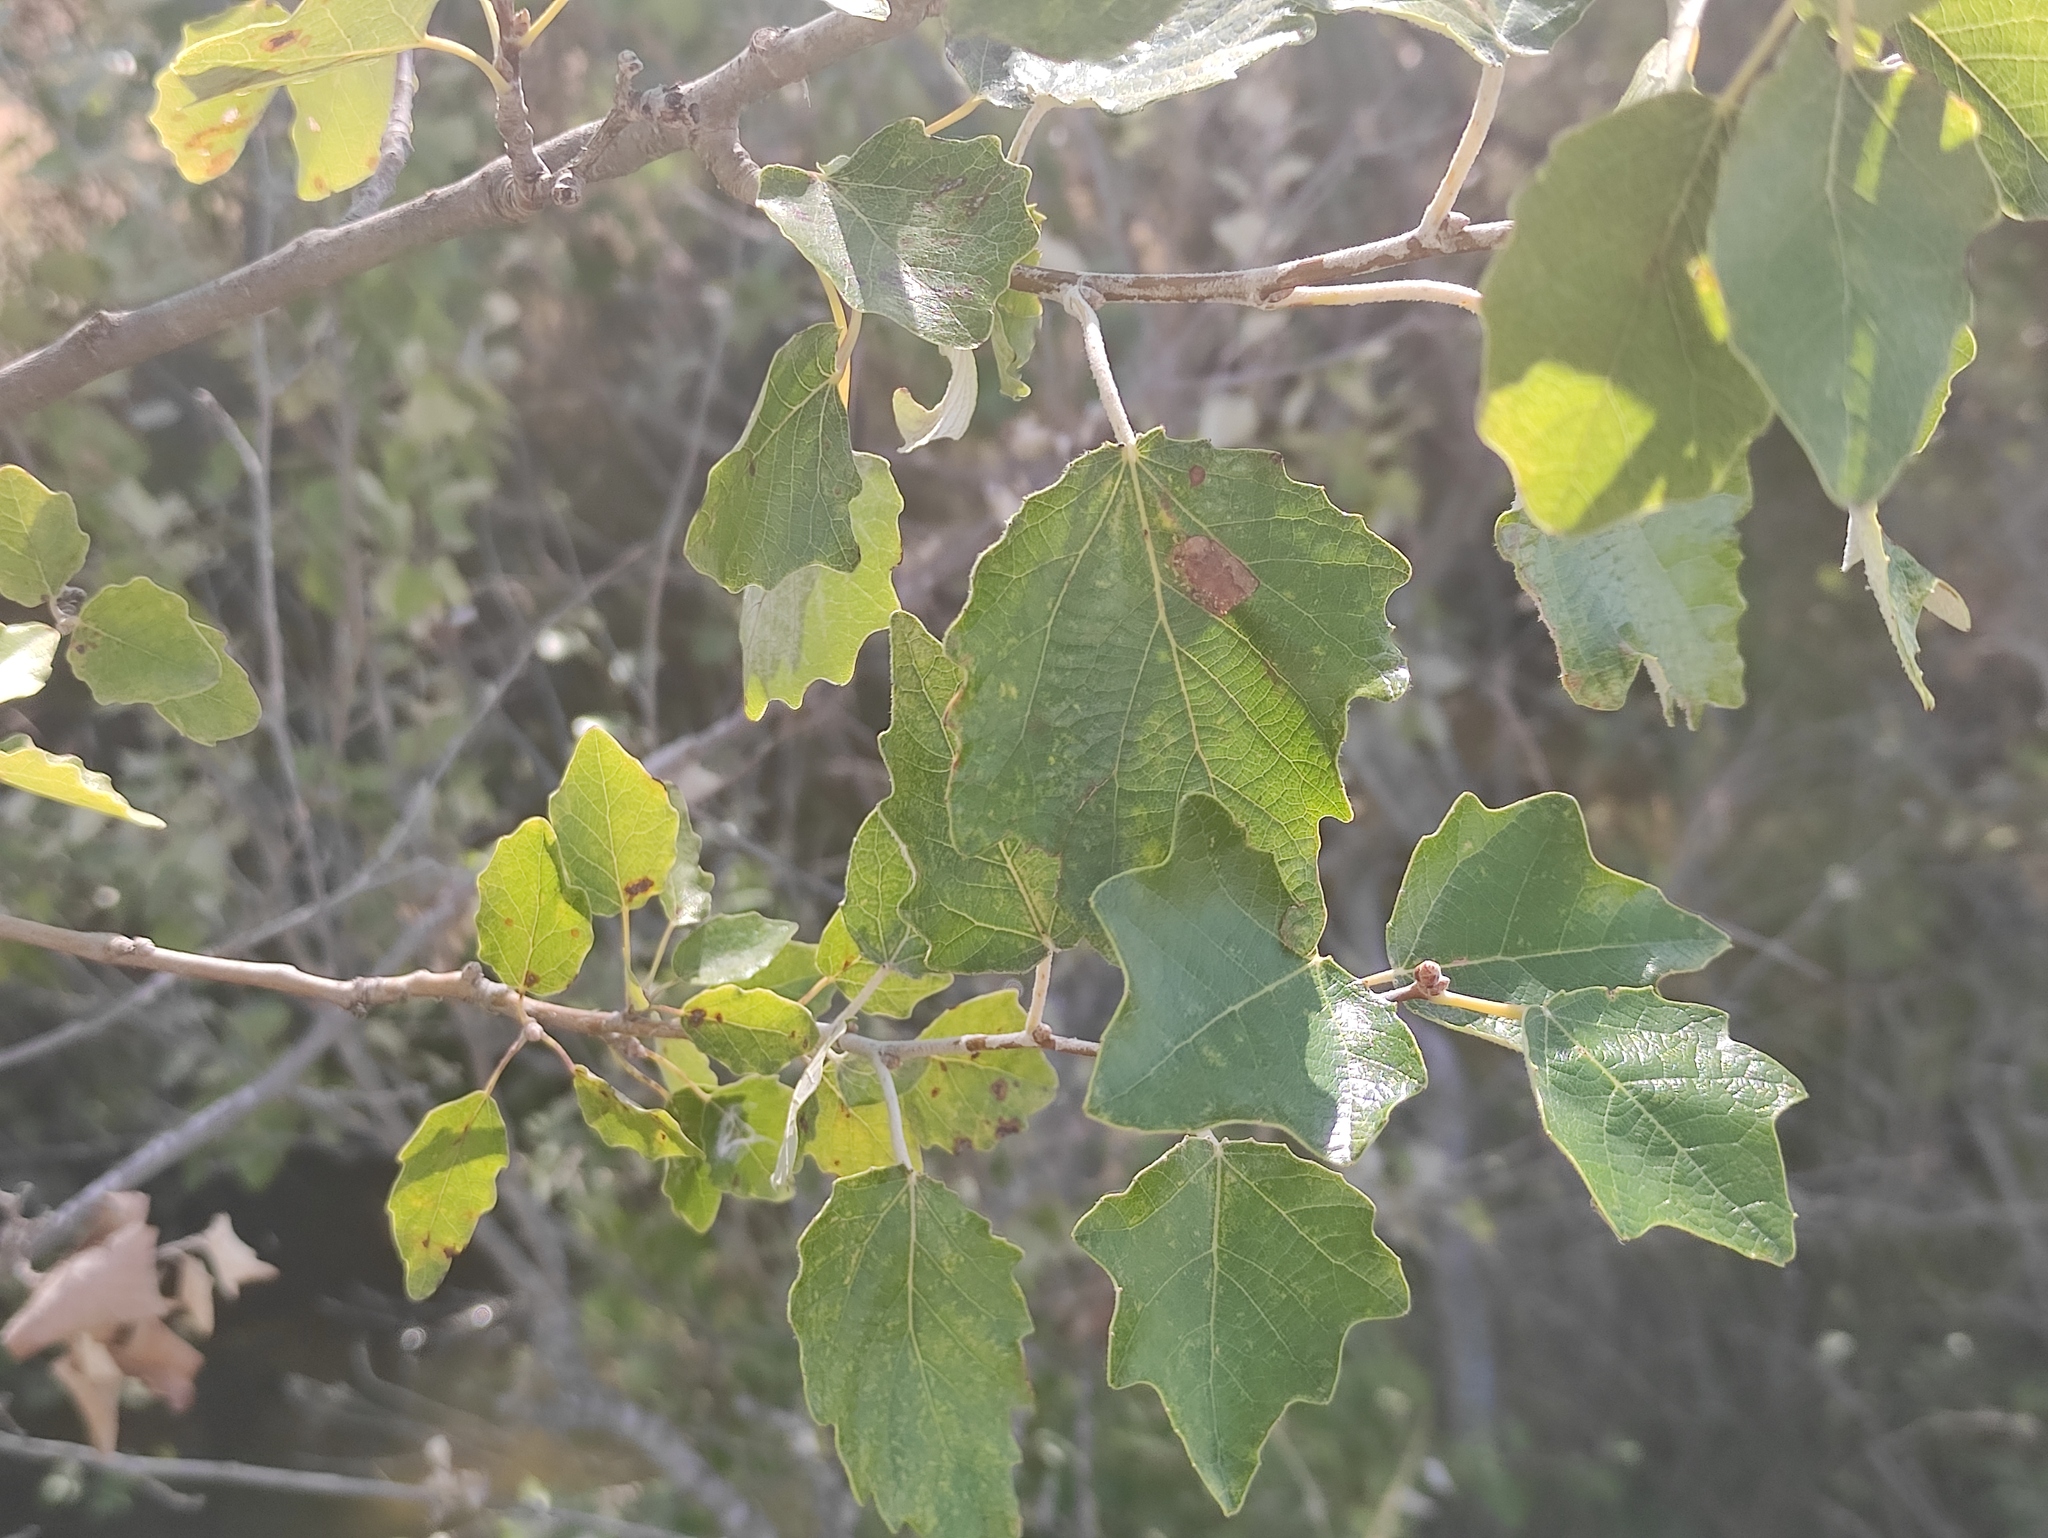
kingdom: Plantae
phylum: Tracheophyta
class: Magnoliopsida
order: Malpighiales
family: Salicaceae
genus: Populus
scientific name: Populus alba
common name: White poplar
